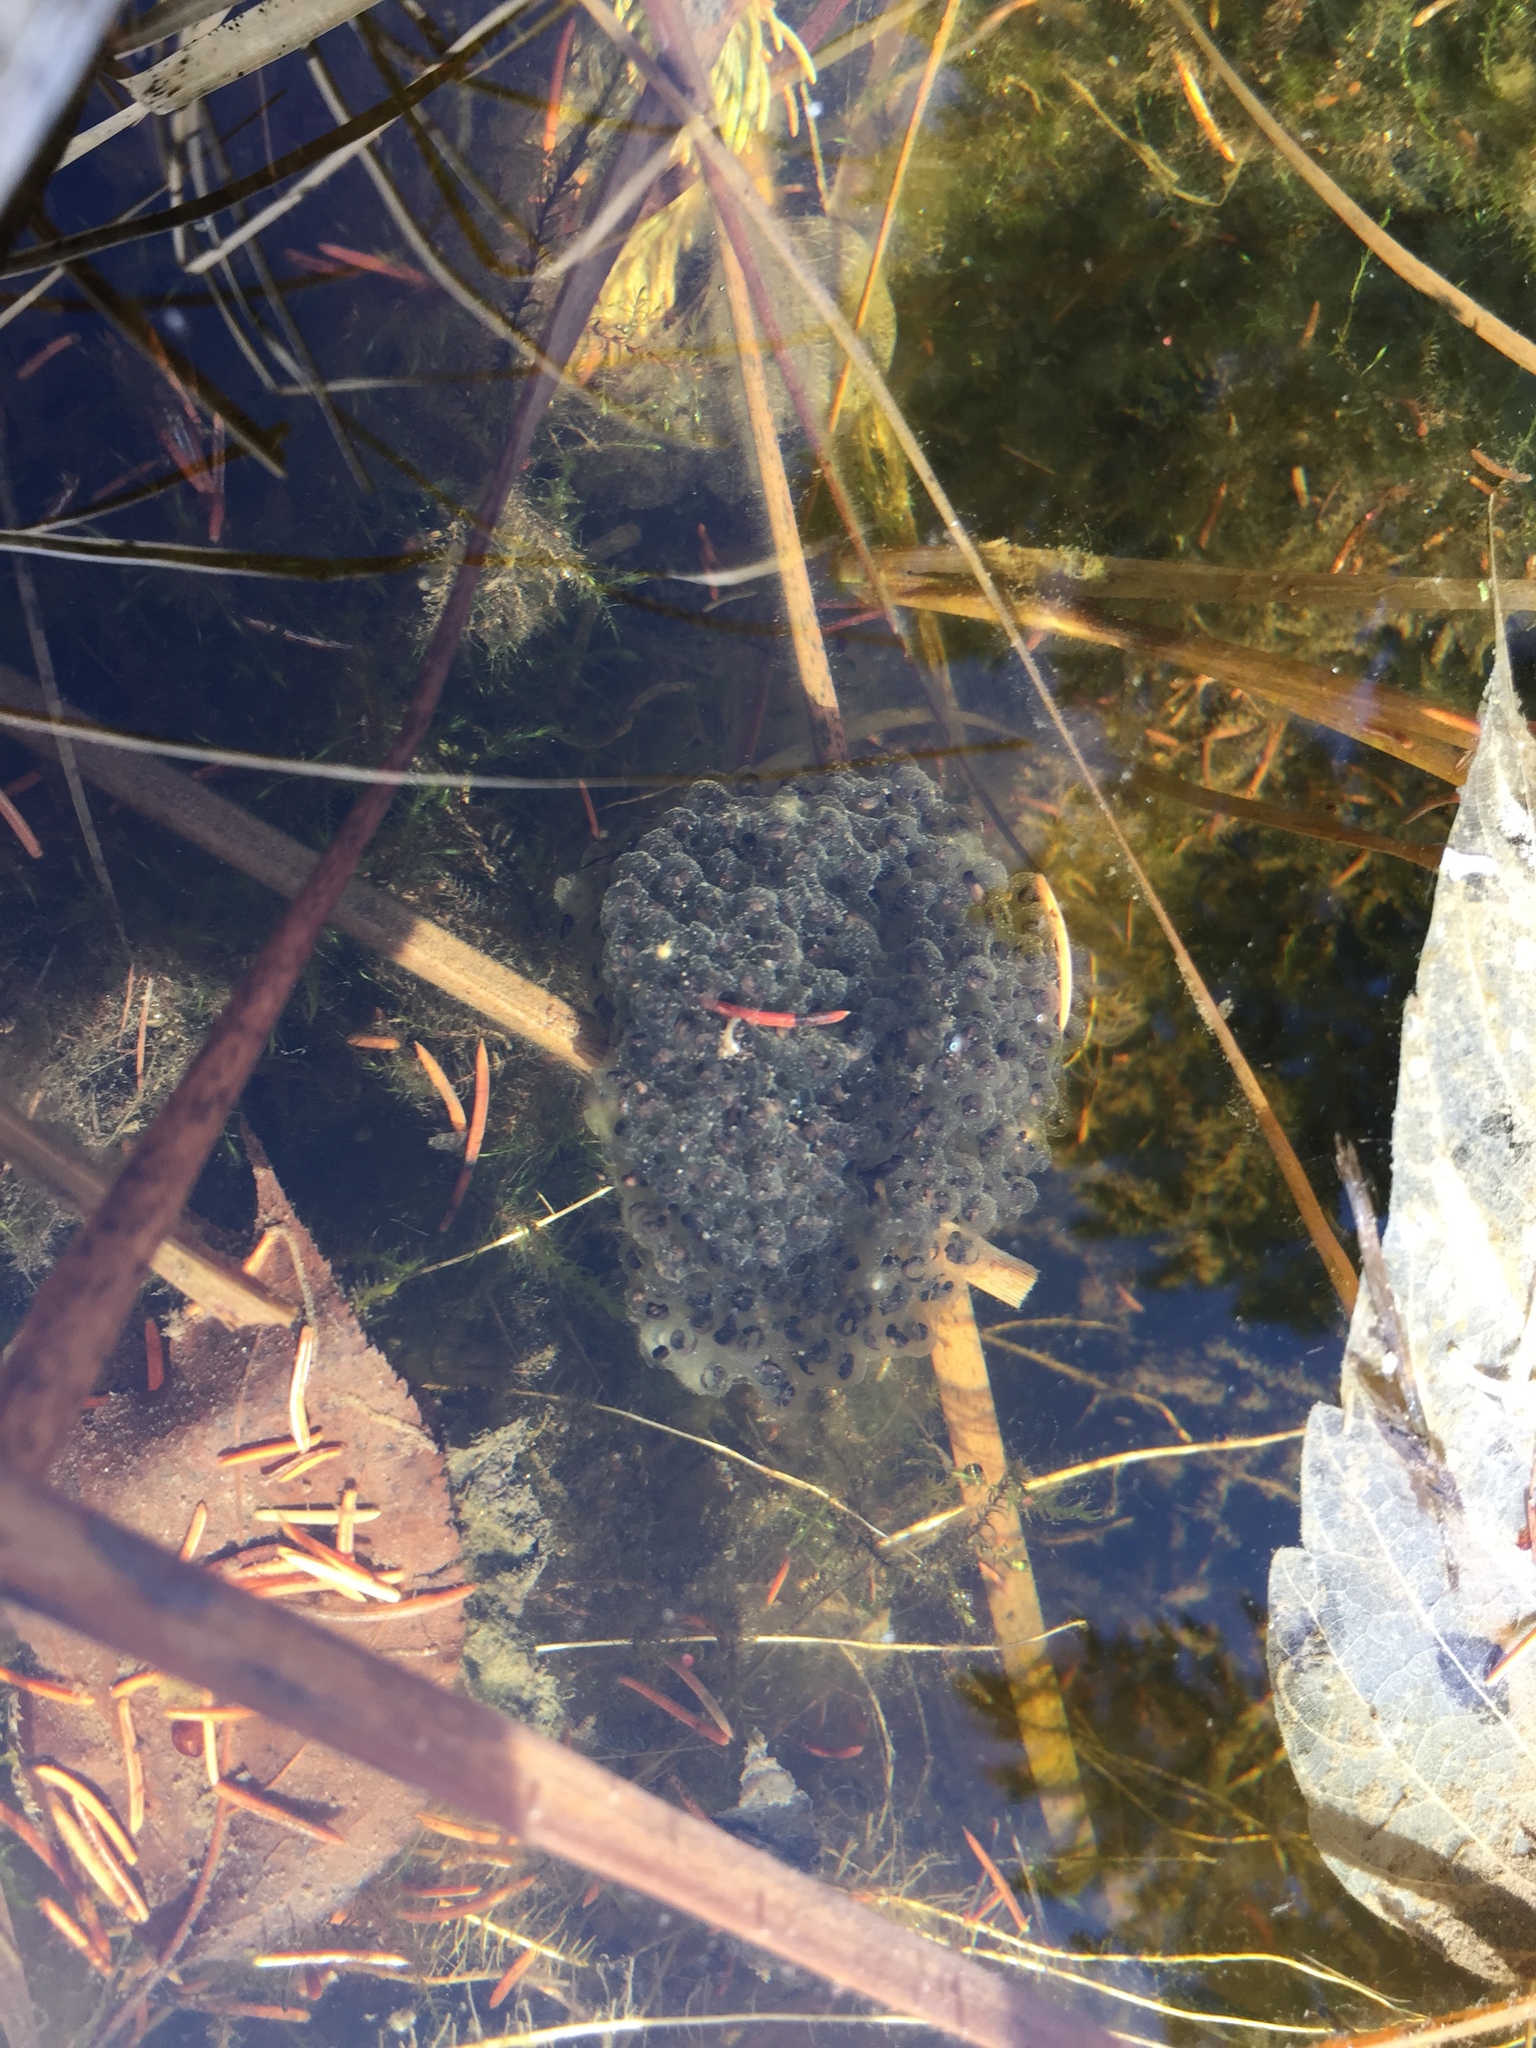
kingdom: Animalia
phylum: Chordata
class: Amphibia
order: Anura
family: Ranidae
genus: Lithobates
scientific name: Lithobates sylvaticus
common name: Wood frog
